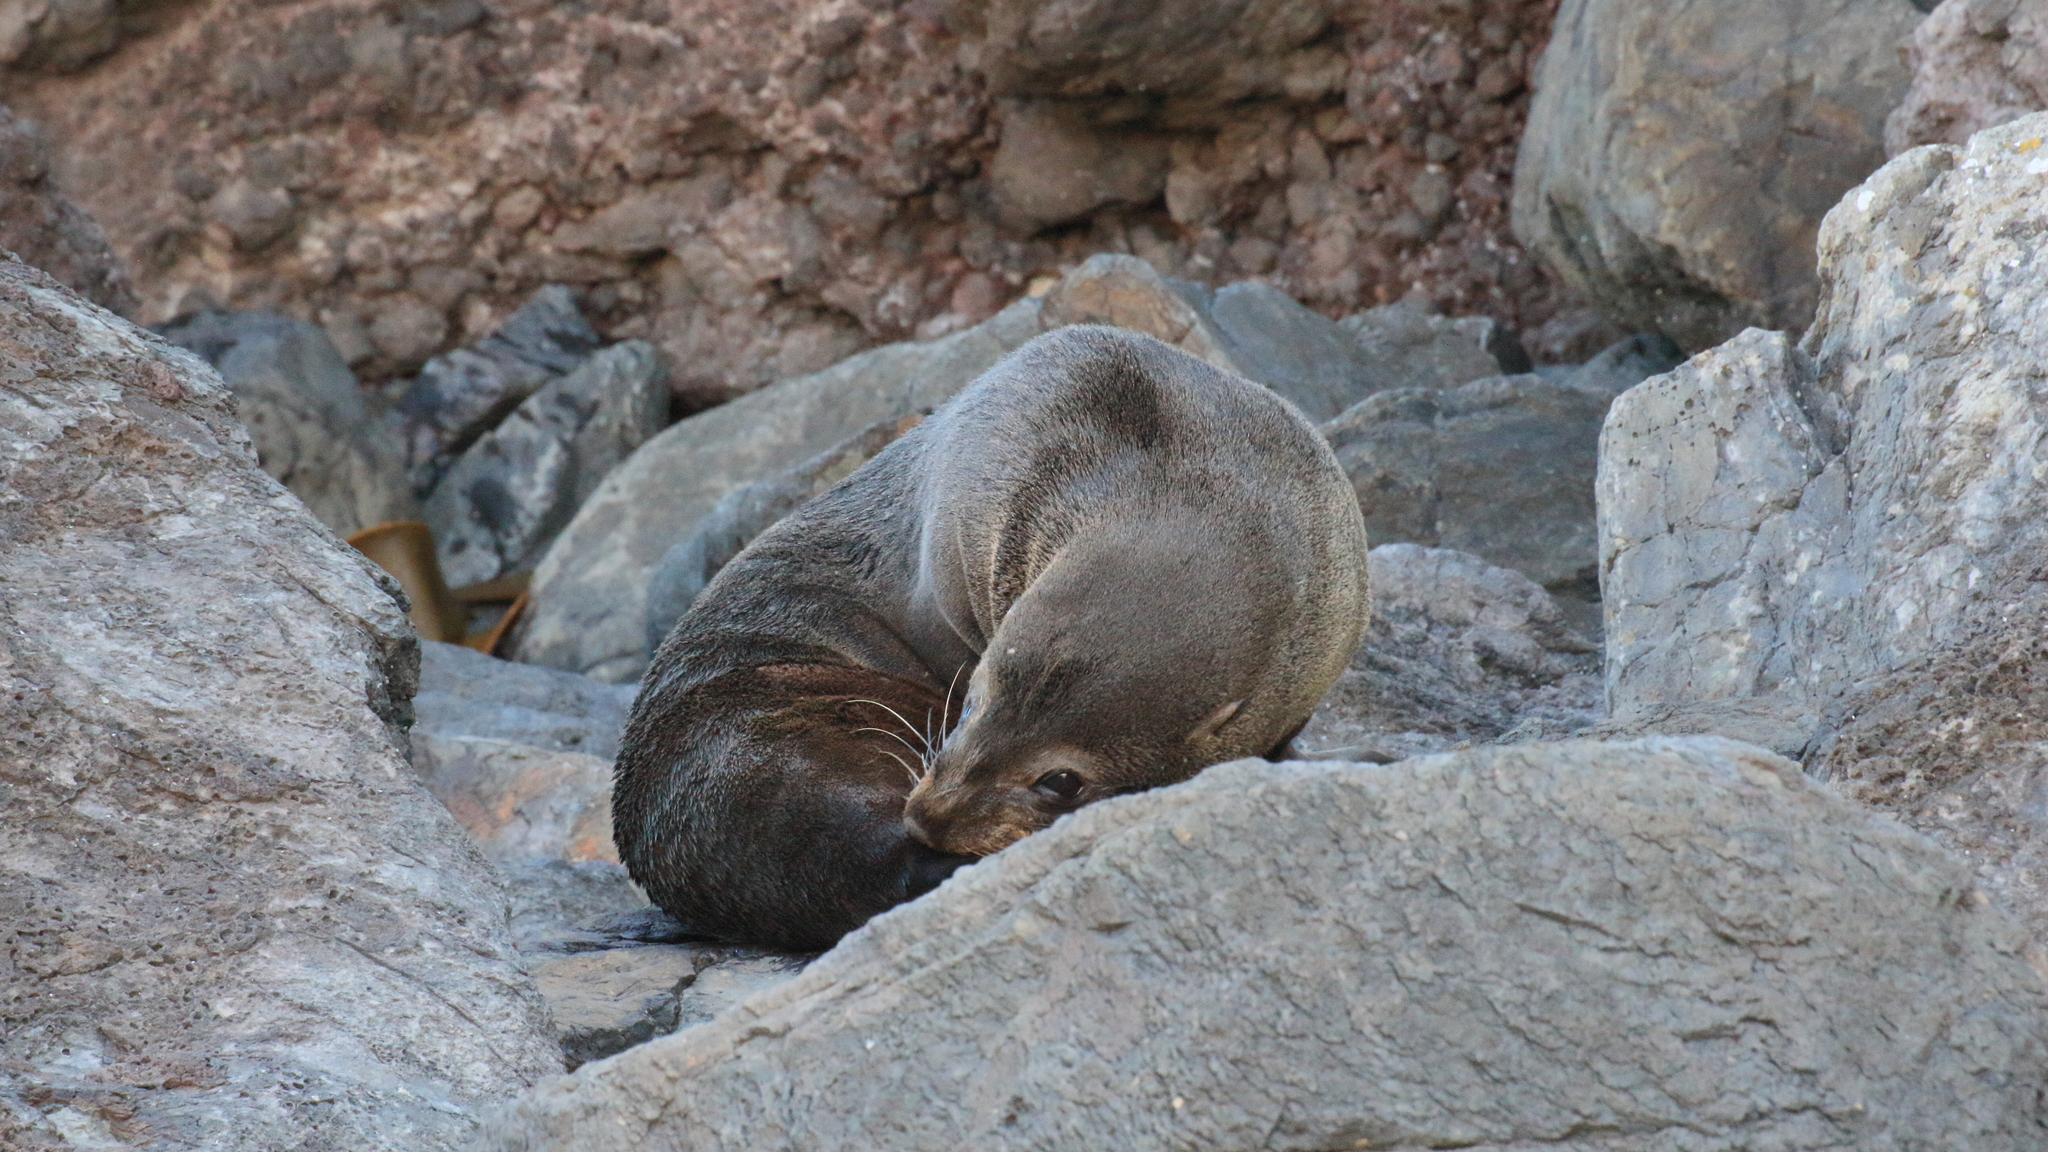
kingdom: Animalia
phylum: Chordata
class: Mammalia
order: Carnivora
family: Otariidae
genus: Arctocephalus
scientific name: Arctocephalus forsteri
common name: New zealand fur seal
